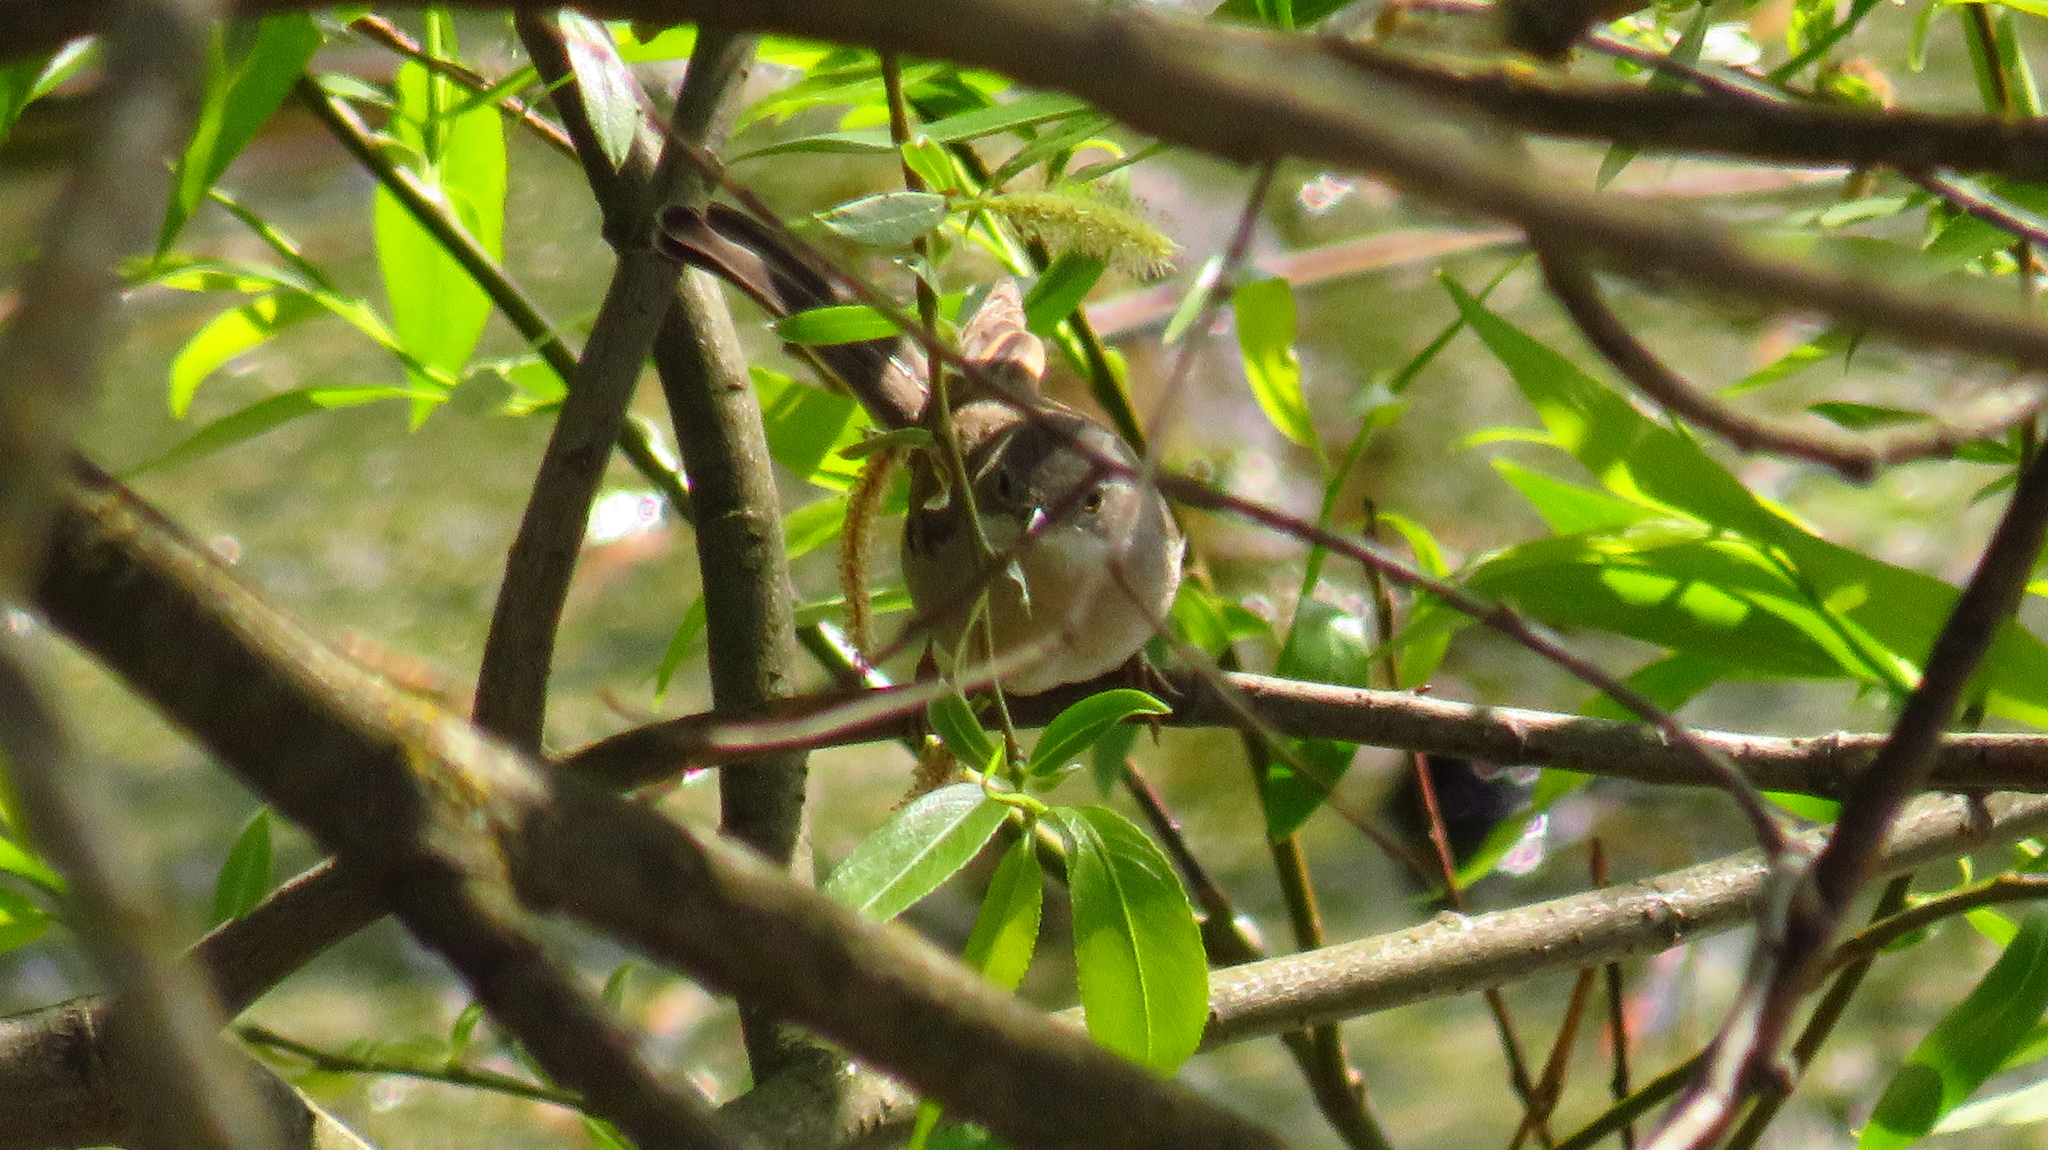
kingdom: Animalia
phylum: Chordata
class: Aves
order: Passeriformes
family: Sylviidae
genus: Sylvia
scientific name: Sylvia communis
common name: Common whitethroat
